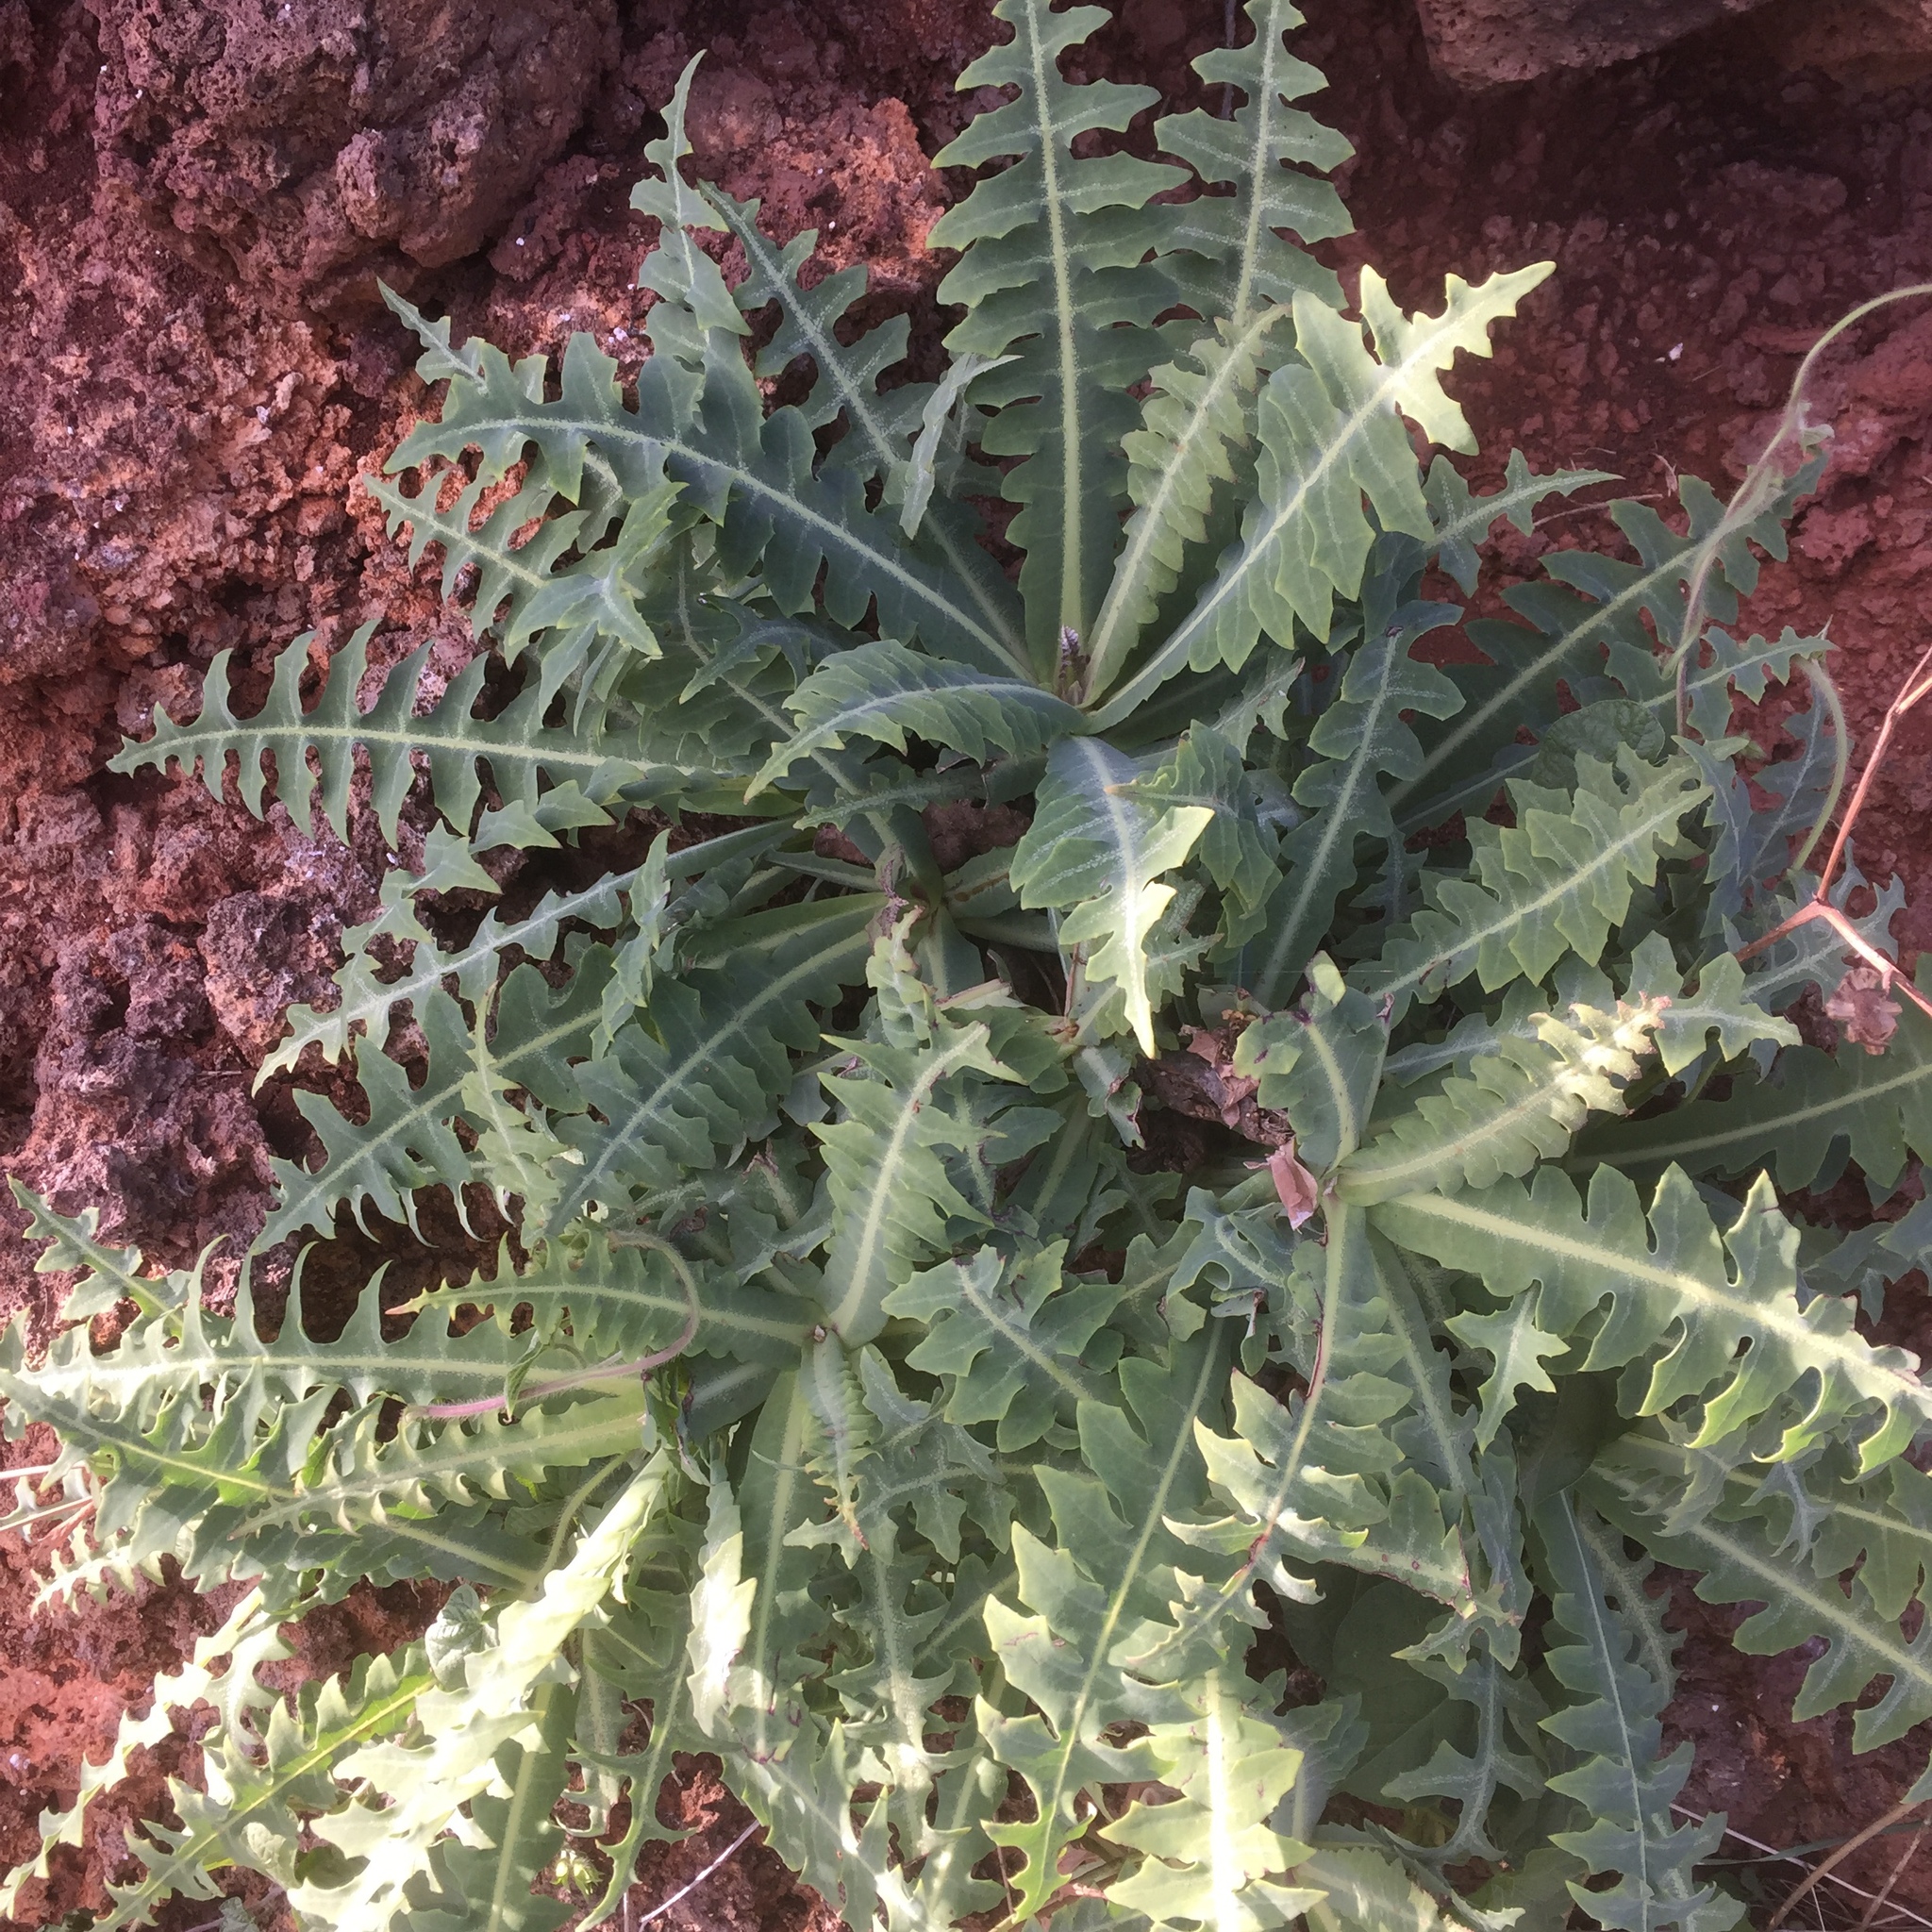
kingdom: Plantae
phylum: Tracheophyta
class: Magnoliopsida
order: Asterales
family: Asteraceae
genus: Sonchus
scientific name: Sonchus ustulatus
